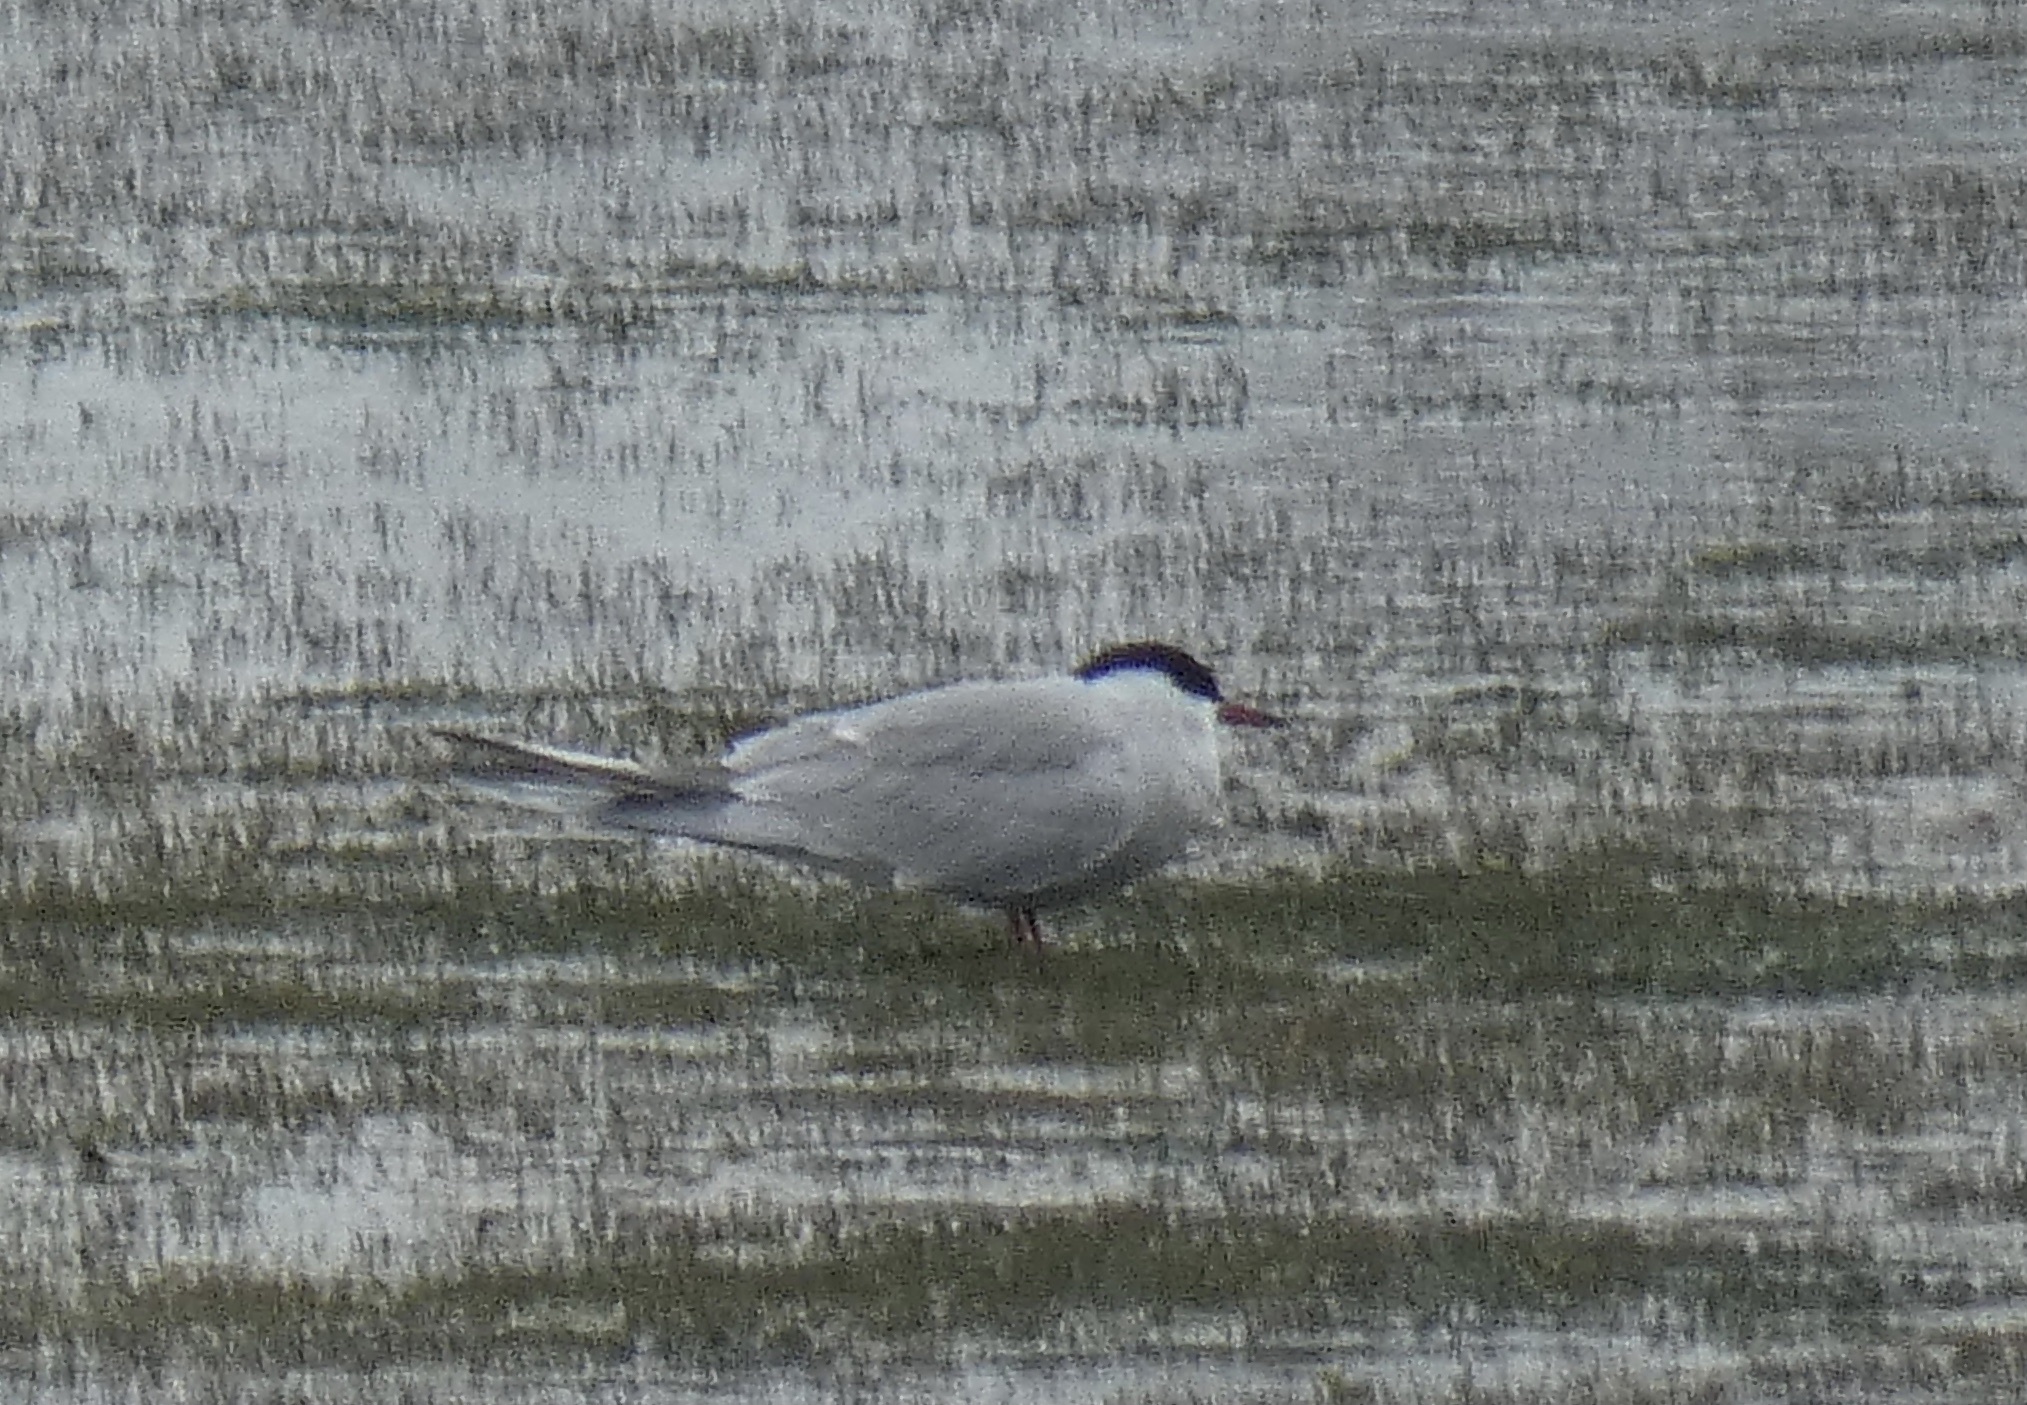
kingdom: Animalia
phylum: Chordata
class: Aves
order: Charadriiformes
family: Laridae
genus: Sterna
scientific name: Sterna hirundo
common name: Common tern
